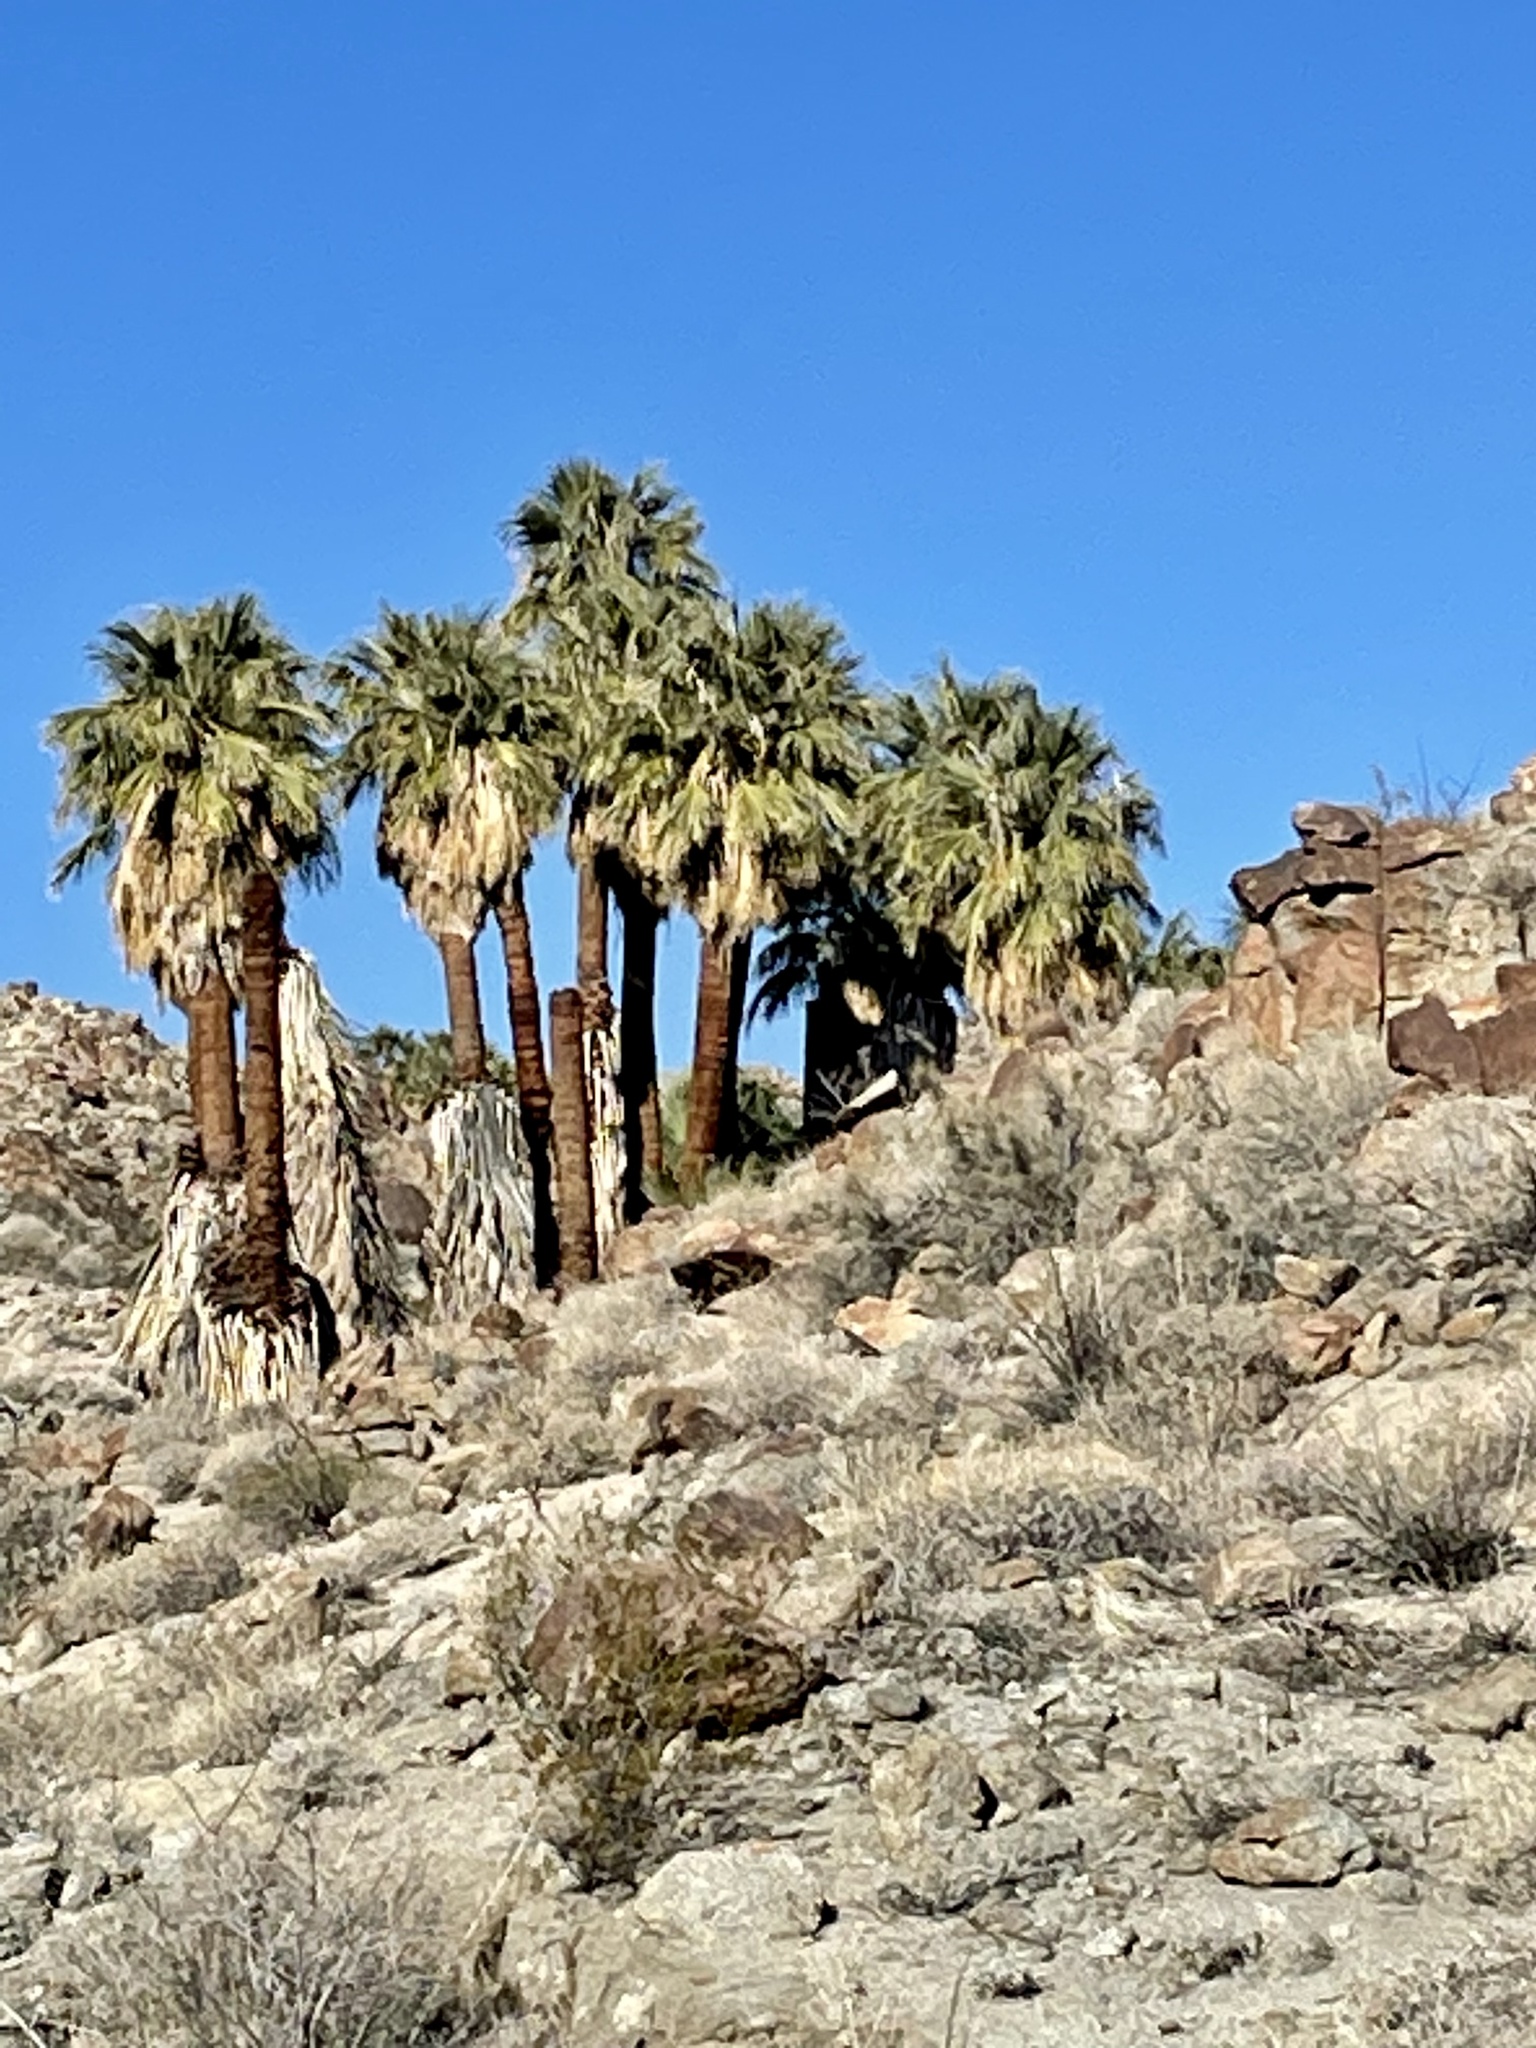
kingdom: Plantae
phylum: Tracheophyta
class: Liliopsida
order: Arecales
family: Arecaceae
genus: Washingtonia
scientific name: Washingtonia filifera
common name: California fan palm
